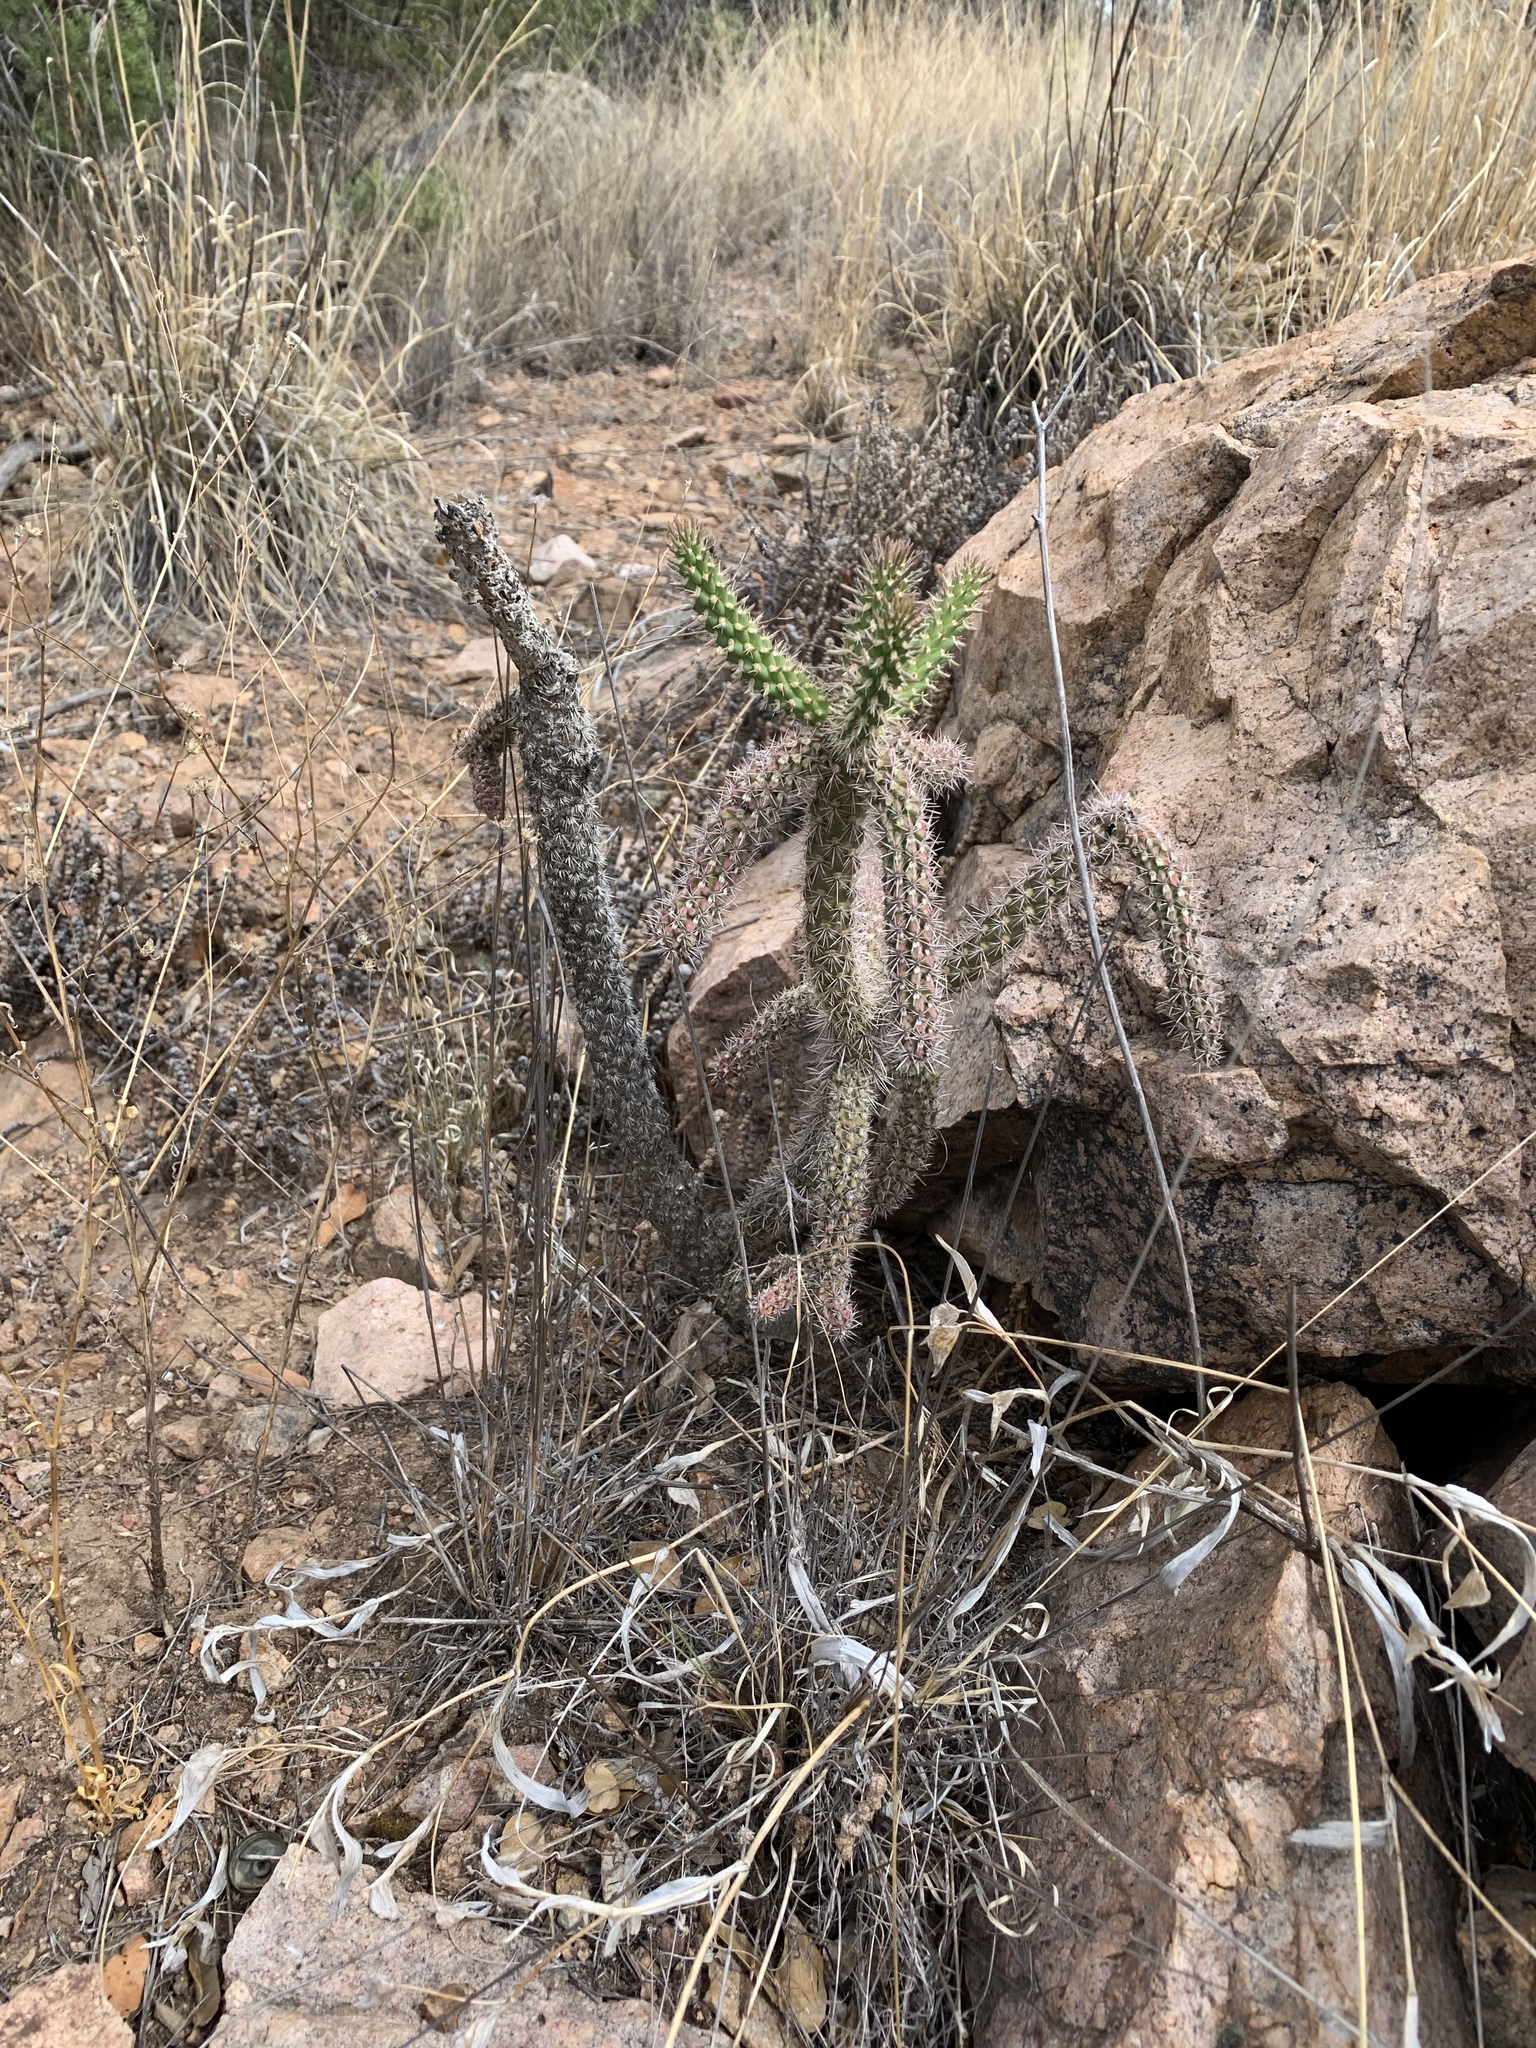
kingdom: Plantae
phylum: Tracheophyta
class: Magnoliopsida
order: Caryophyllales
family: Cactaceae
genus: Cylindropuntia
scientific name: Cylindropuntia imbricata
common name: Candelabrum cactus
